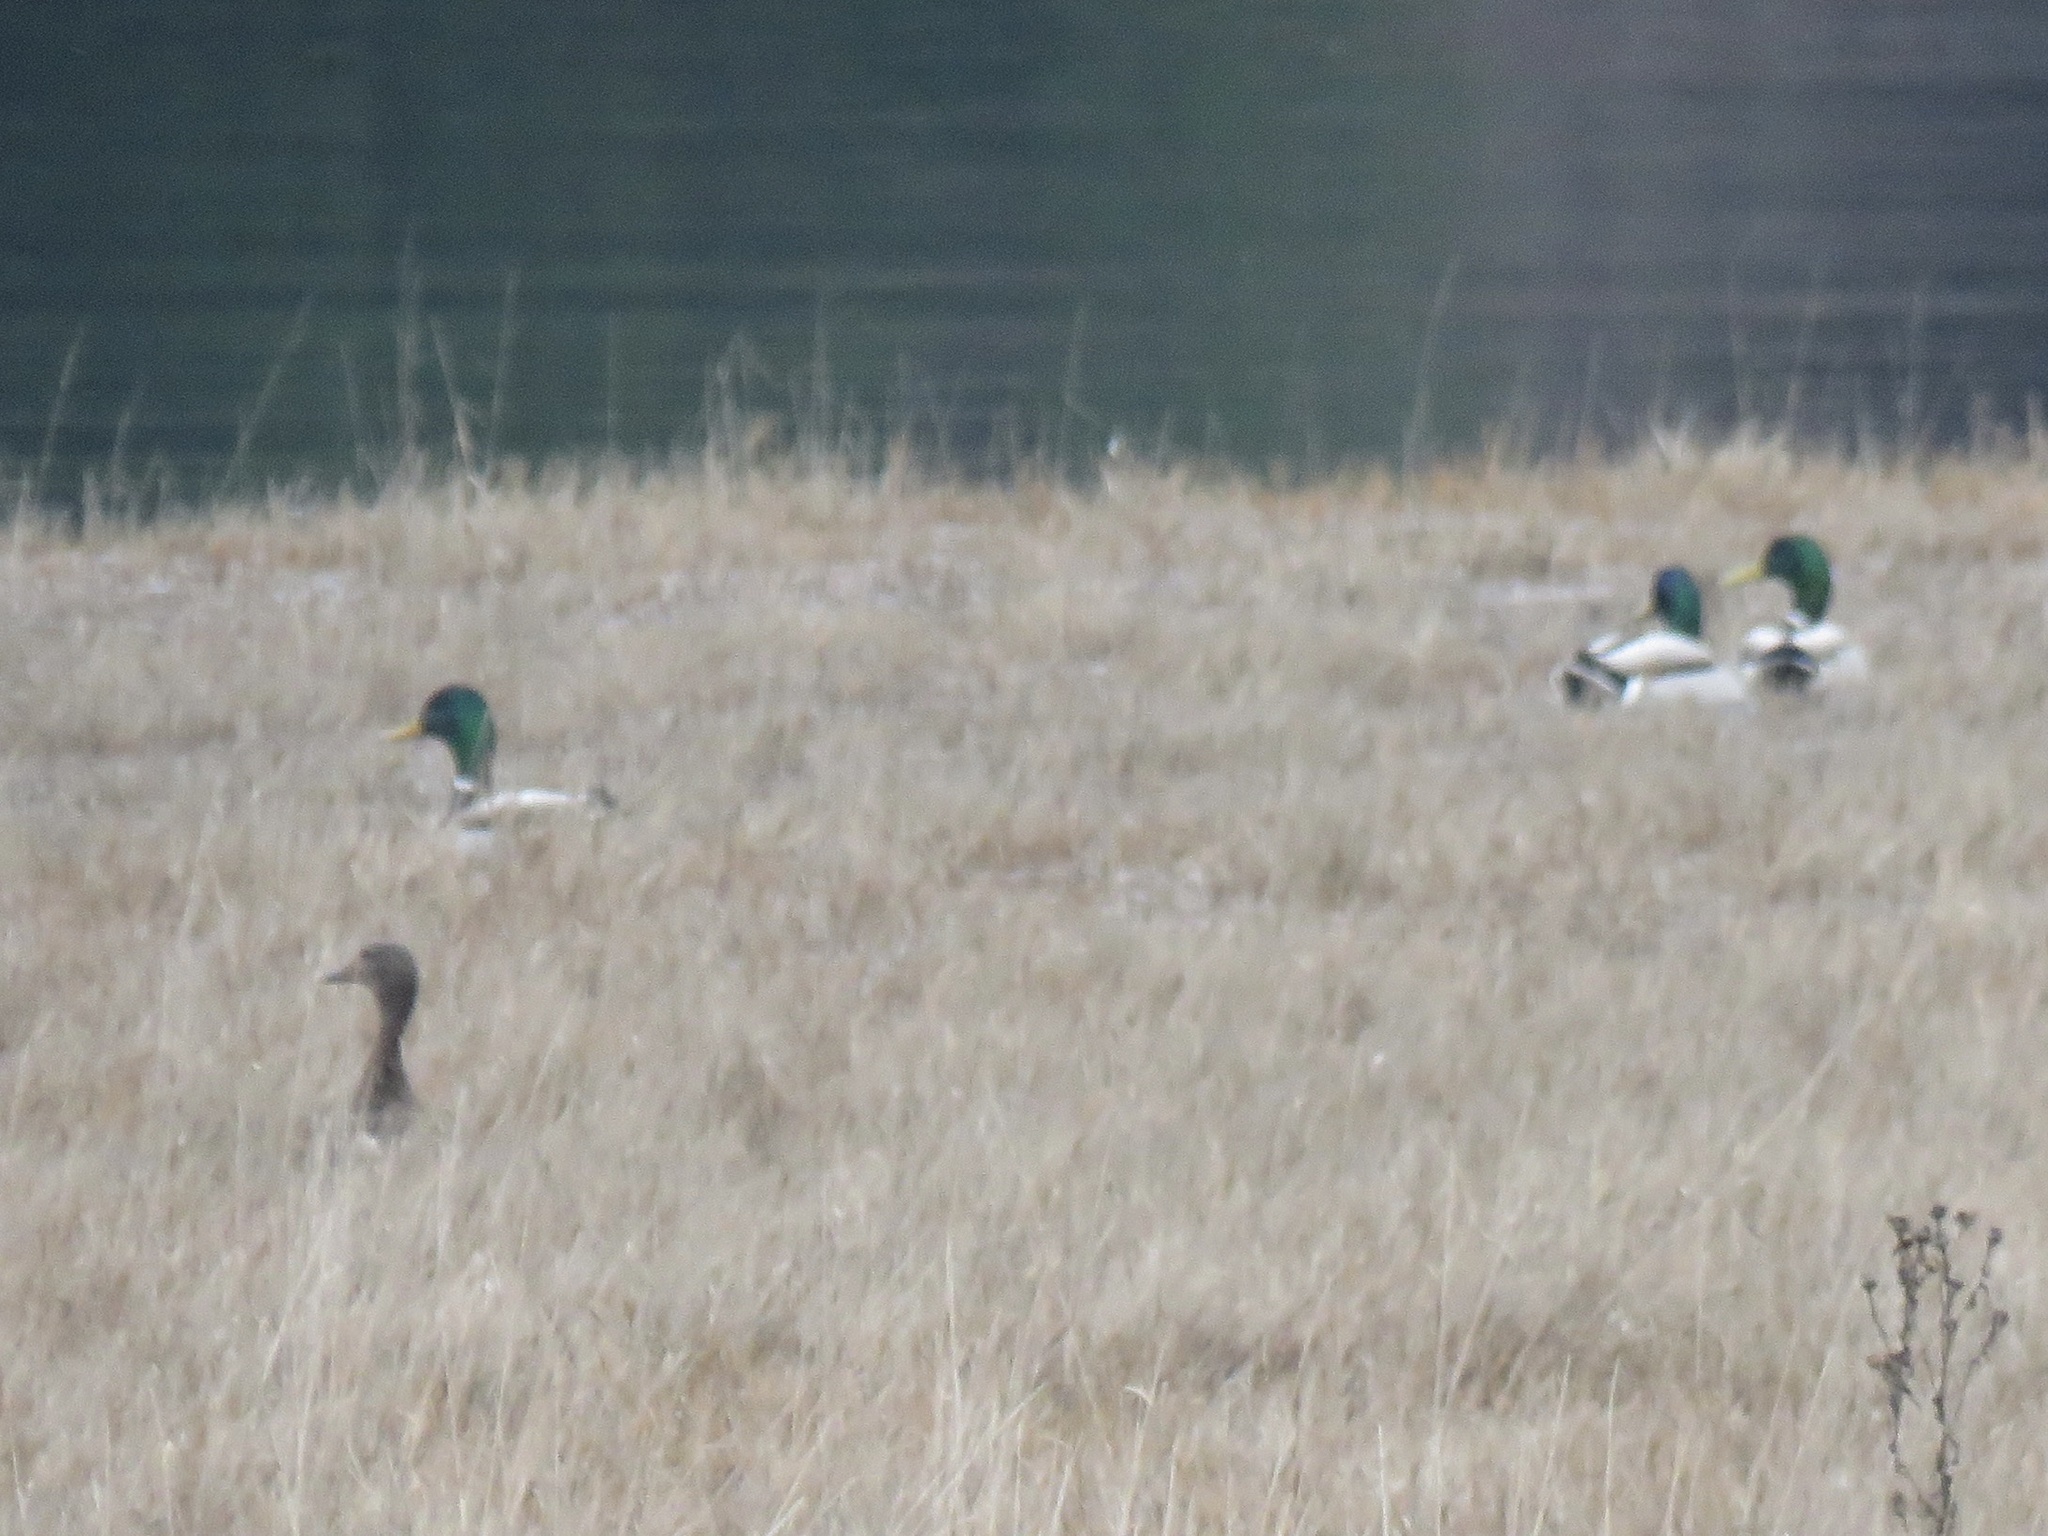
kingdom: Animalia
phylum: Chordata
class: Aves
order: Anseriformes
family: Anatidae
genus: Anas
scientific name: Anas platyrhynchos
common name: Mallard
